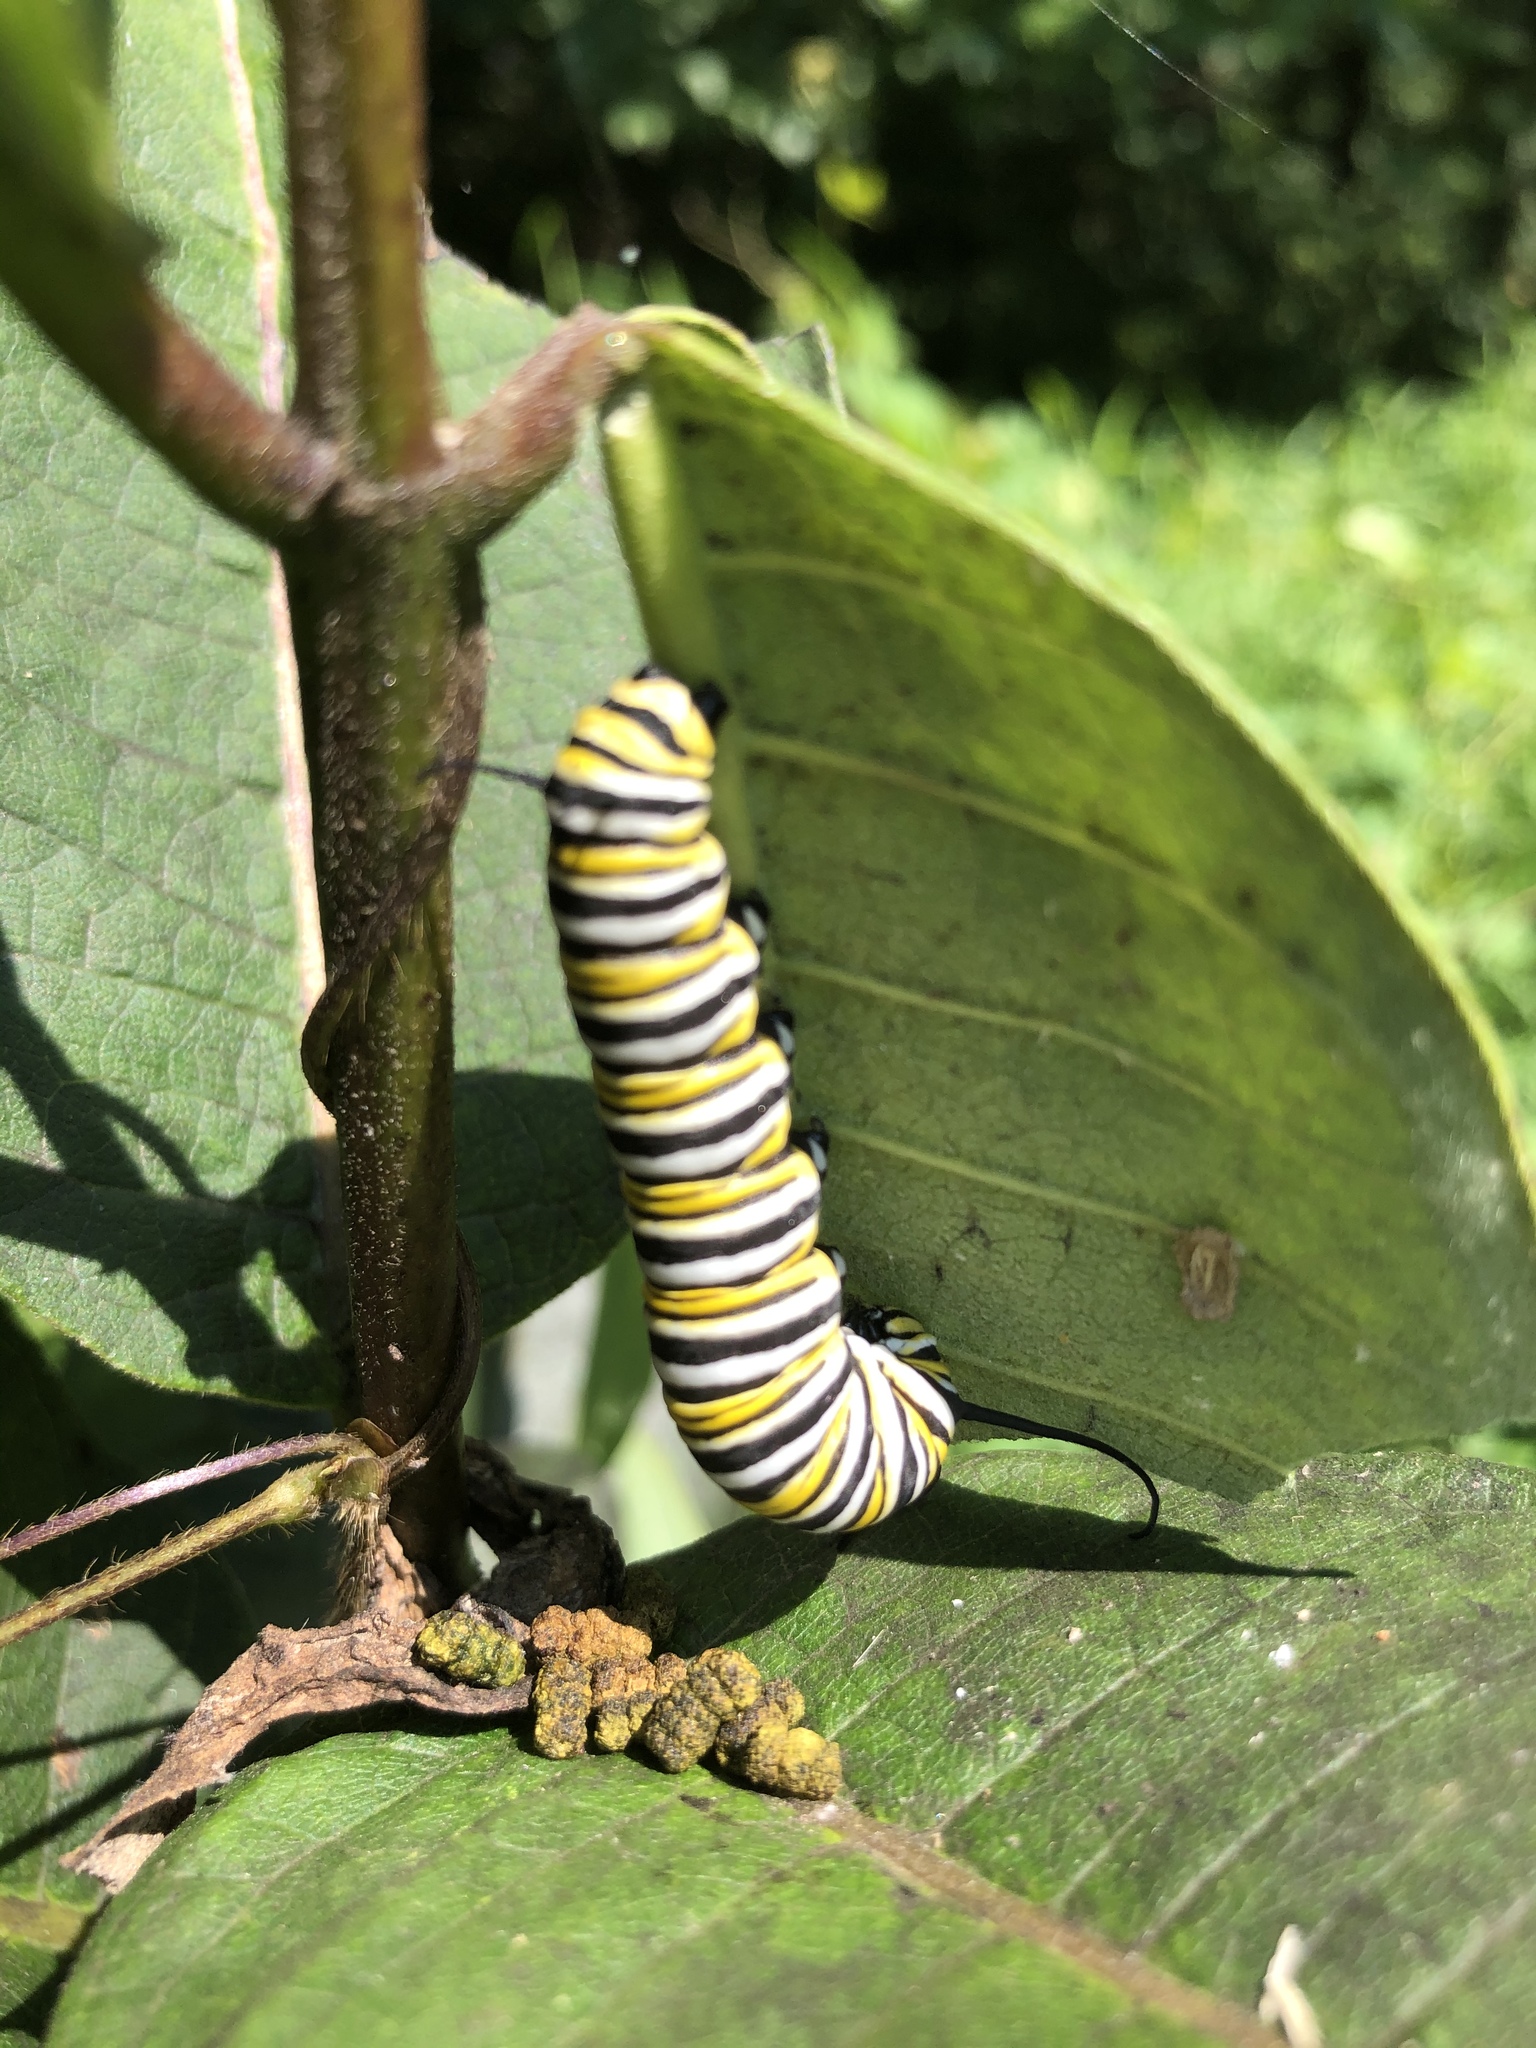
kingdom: Animalia
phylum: Arthropoda
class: Insecta
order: Lepidoptera
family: Nymphalidae
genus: Danaus
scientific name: Danaus plexippus
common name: Monarch
